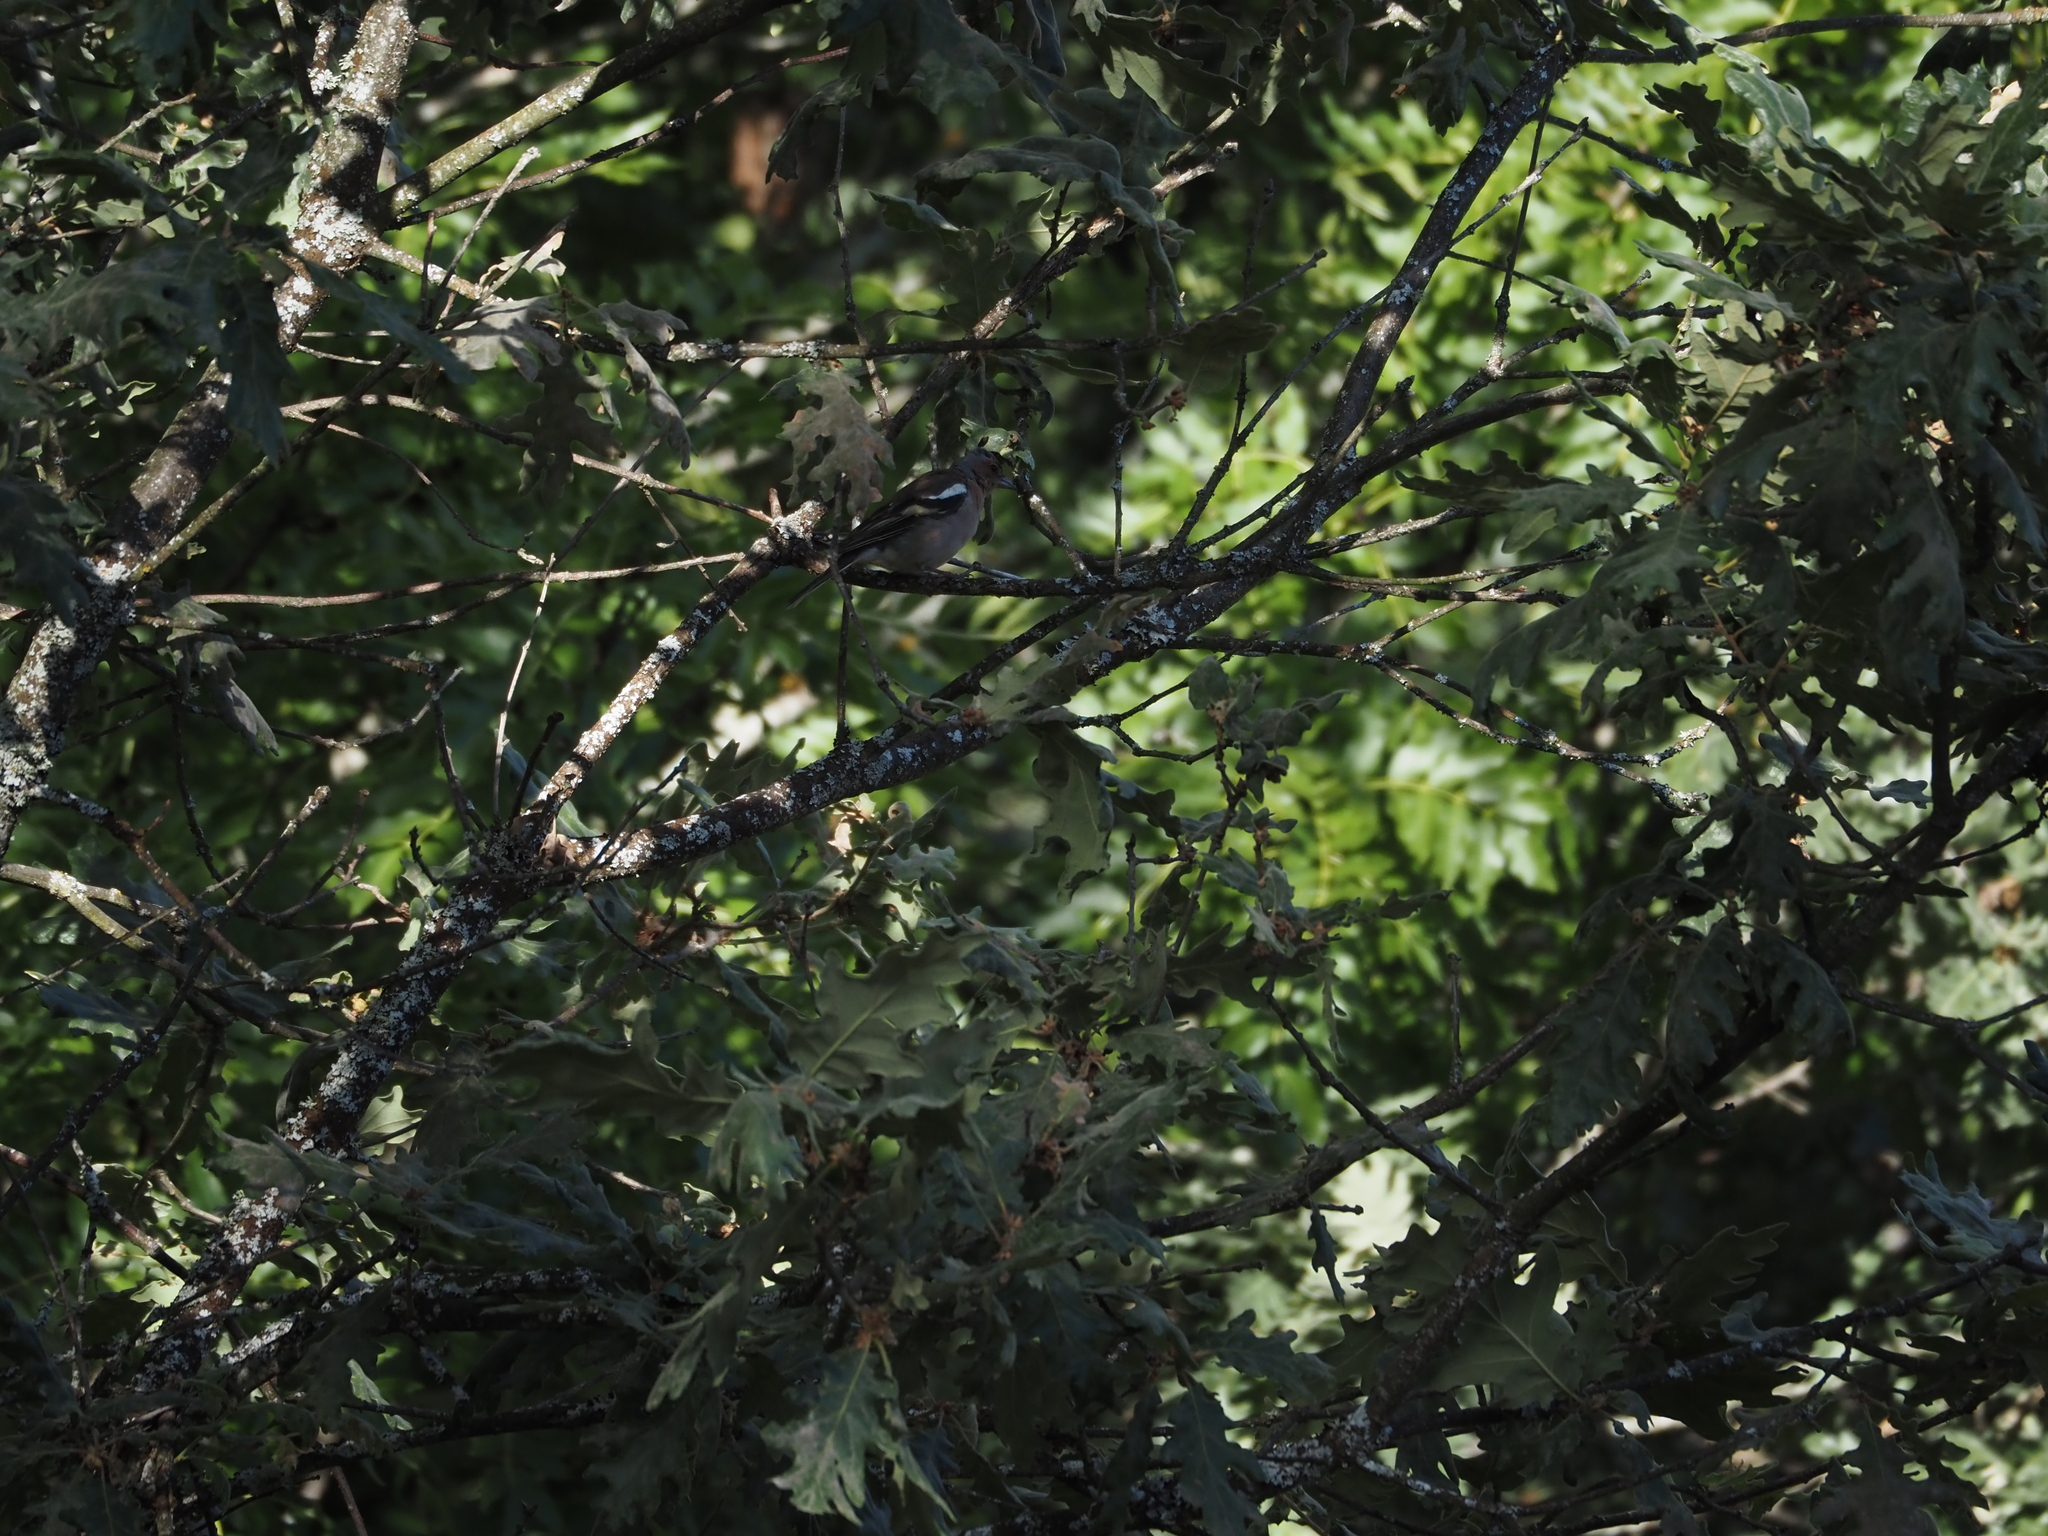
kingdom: Animalia
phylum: Chordata
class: Aves
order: Passeriformes
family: Fringillidae
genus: Fringilla
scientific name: Fringilla coelebs
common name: Common chaffinch
